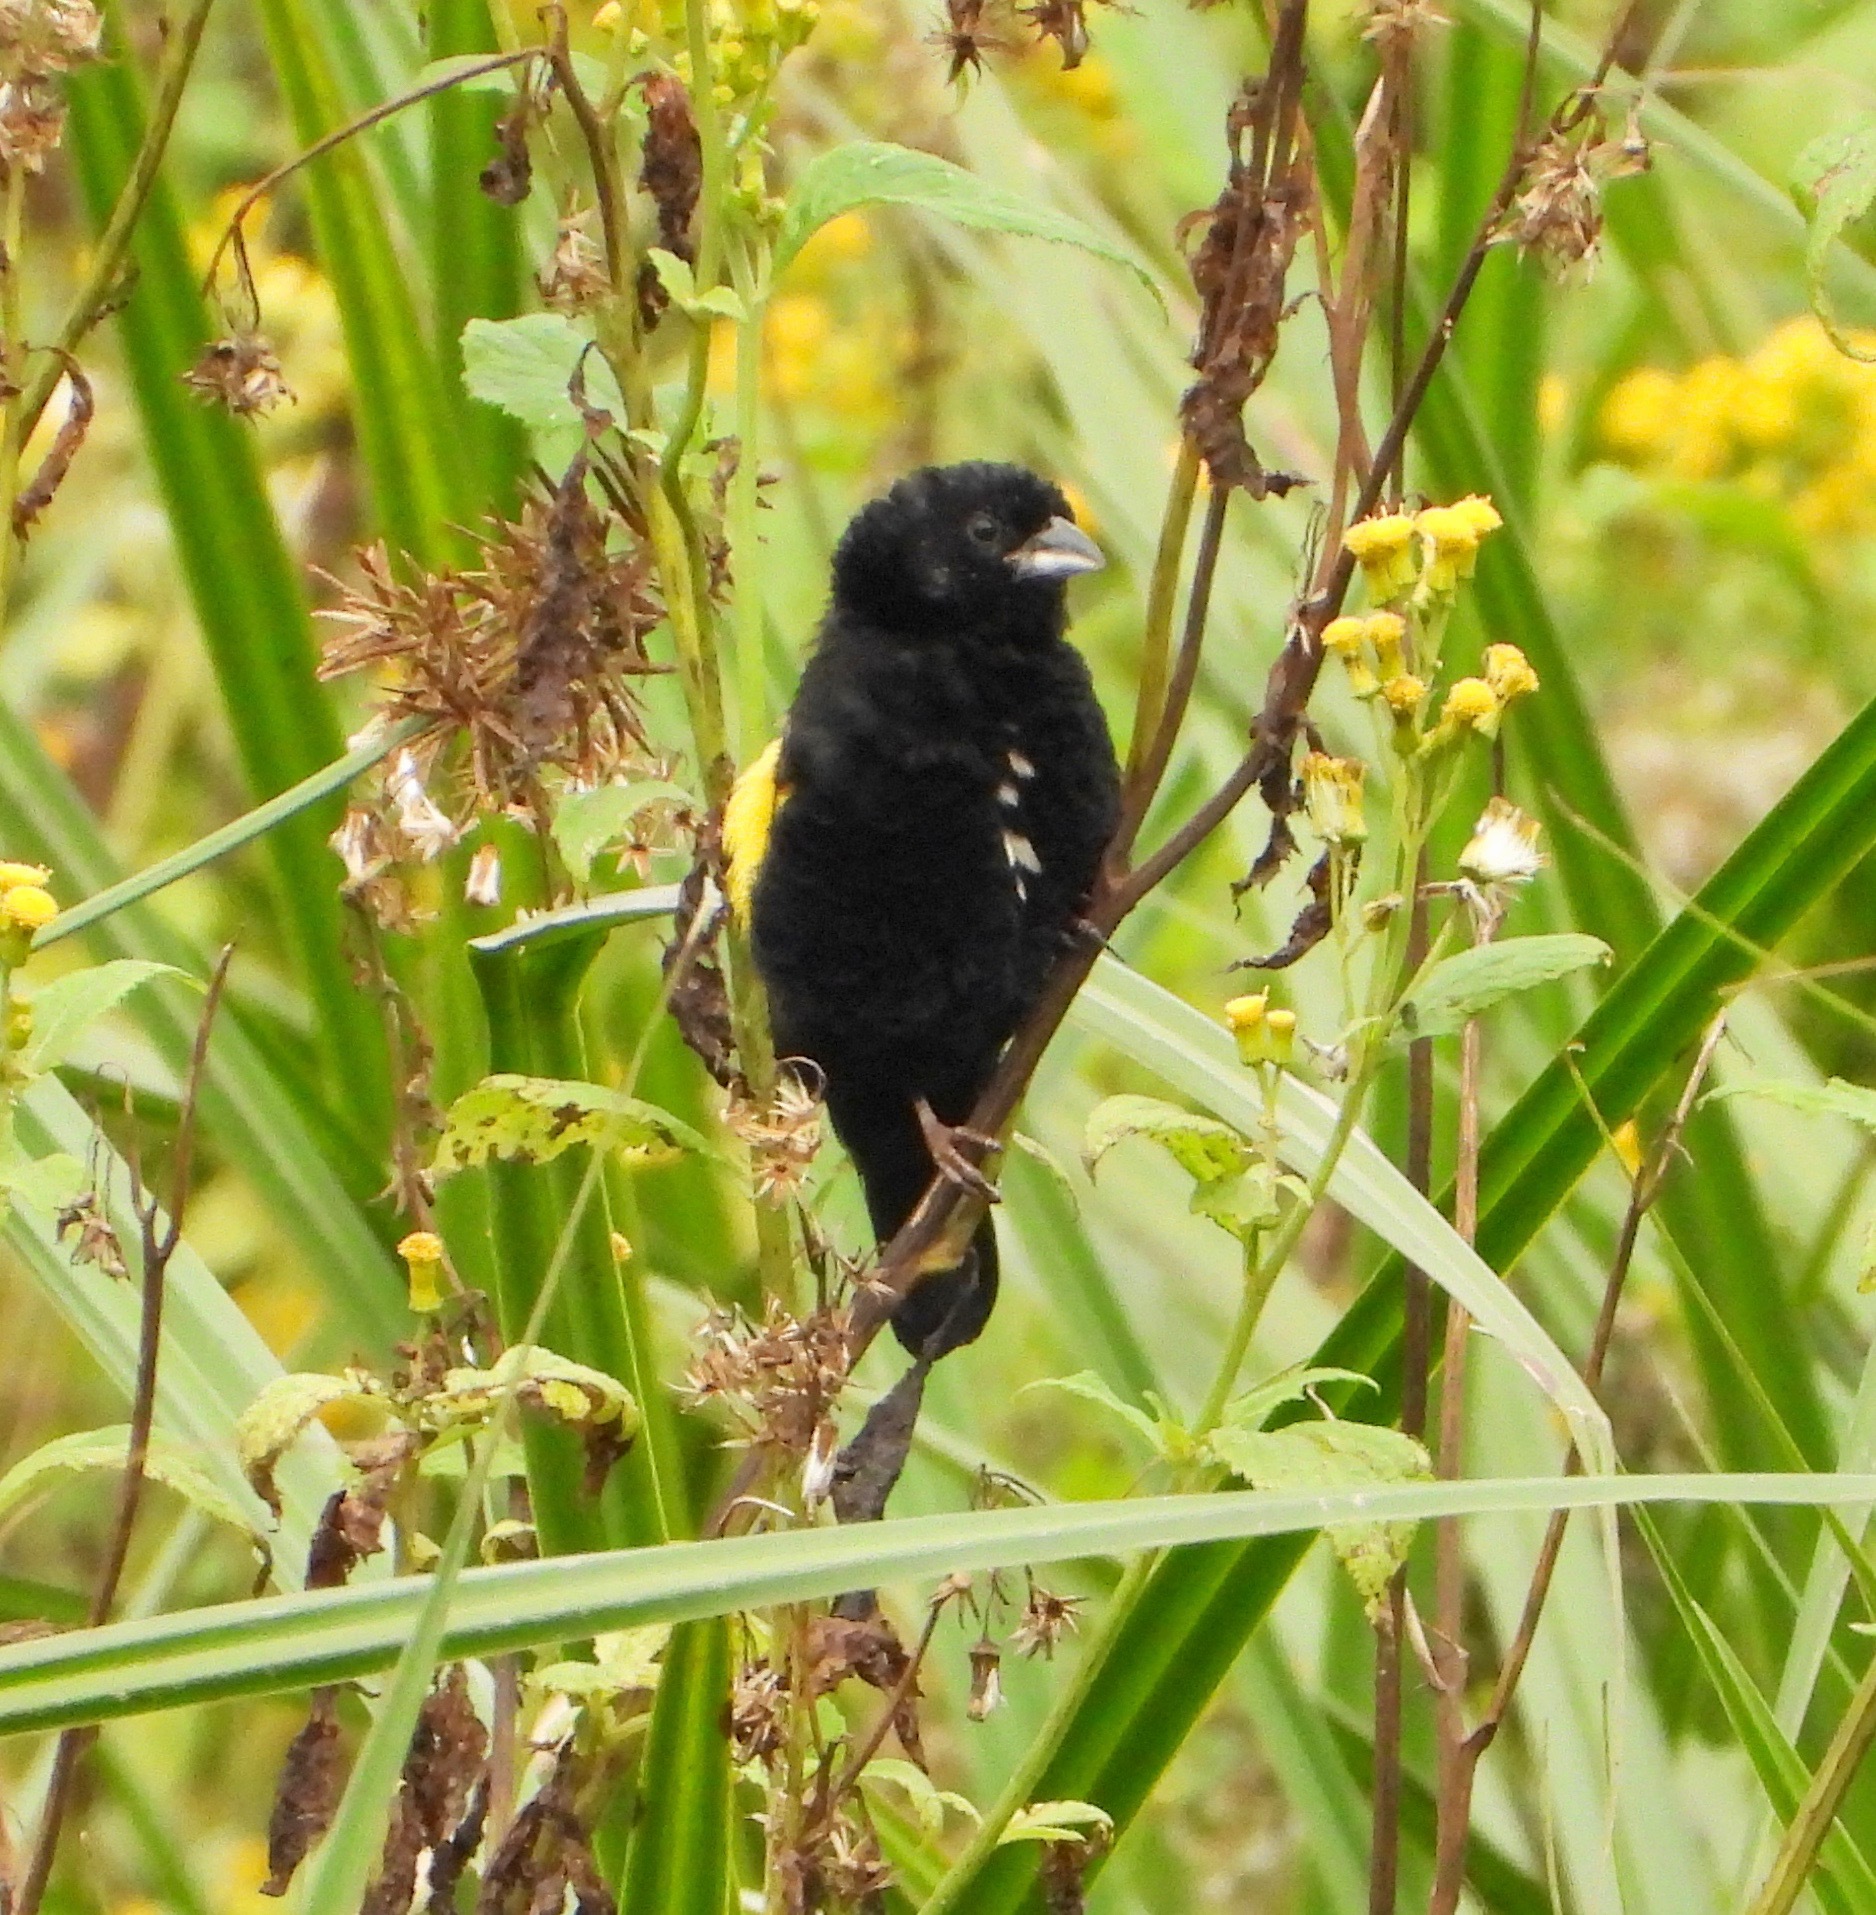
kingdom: Animalia
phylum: Chordata
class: Aves
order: Passeriformes
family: Ploceidae
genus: Euplectes
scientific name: Euplectes capensis
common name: Yellow bishop
